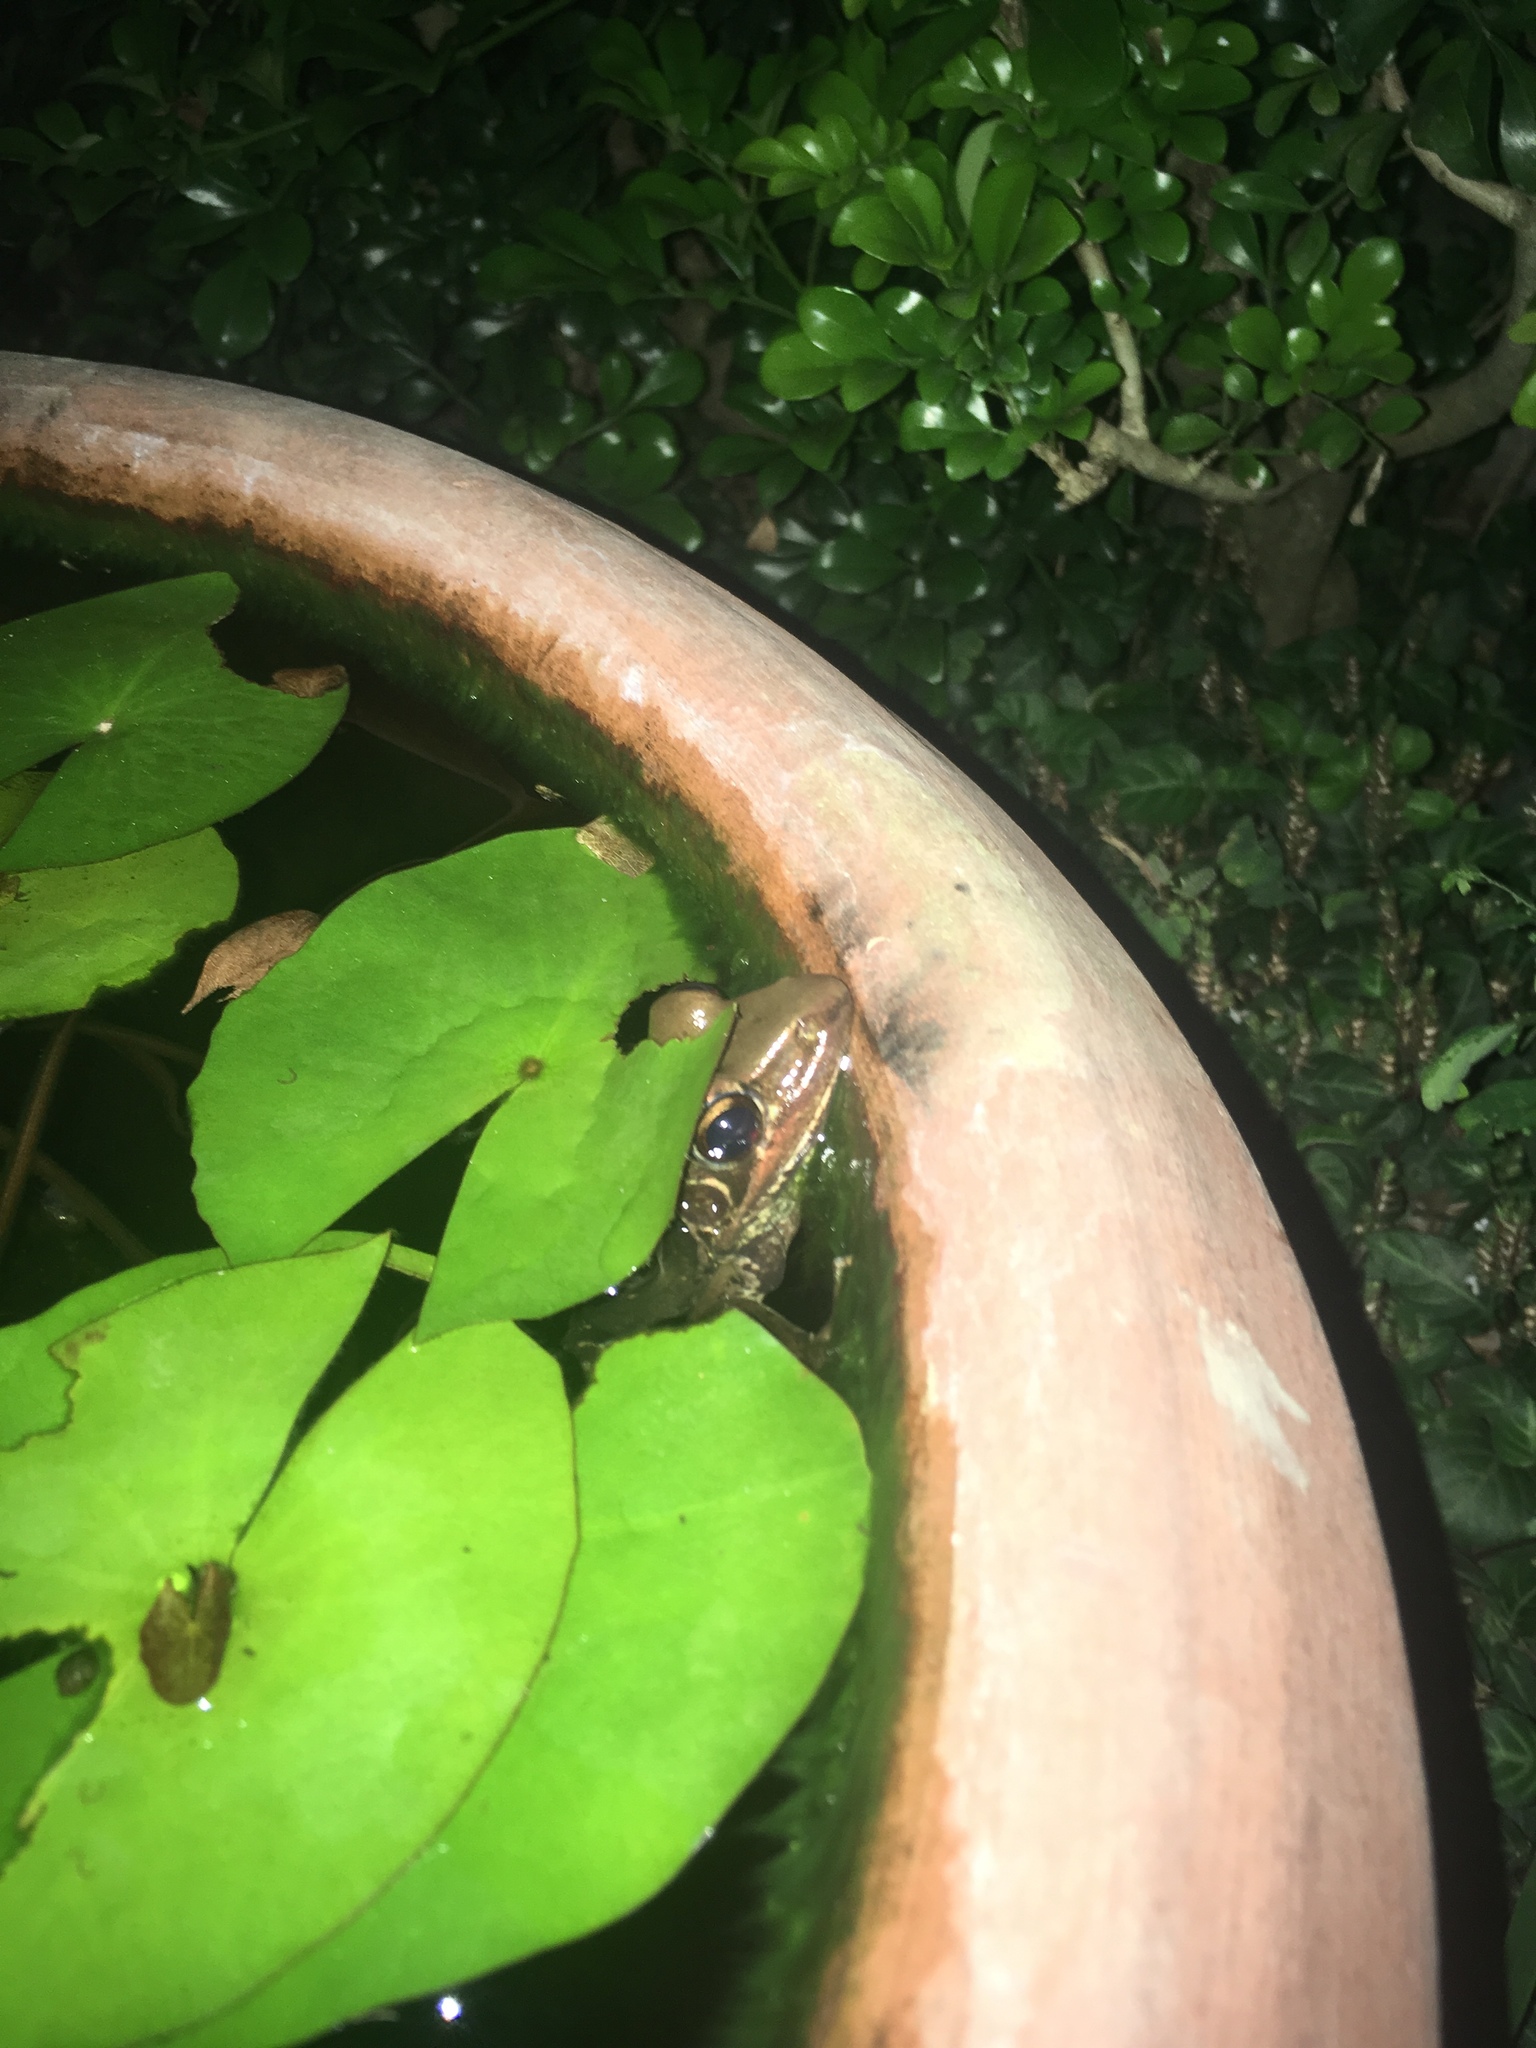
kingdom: Animalia
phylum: Chordata
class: Amphibia
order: Anura
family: Ranidae
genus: Sylvirana
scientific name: Sylvirana guentheri
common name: Guenther's amoy frog
